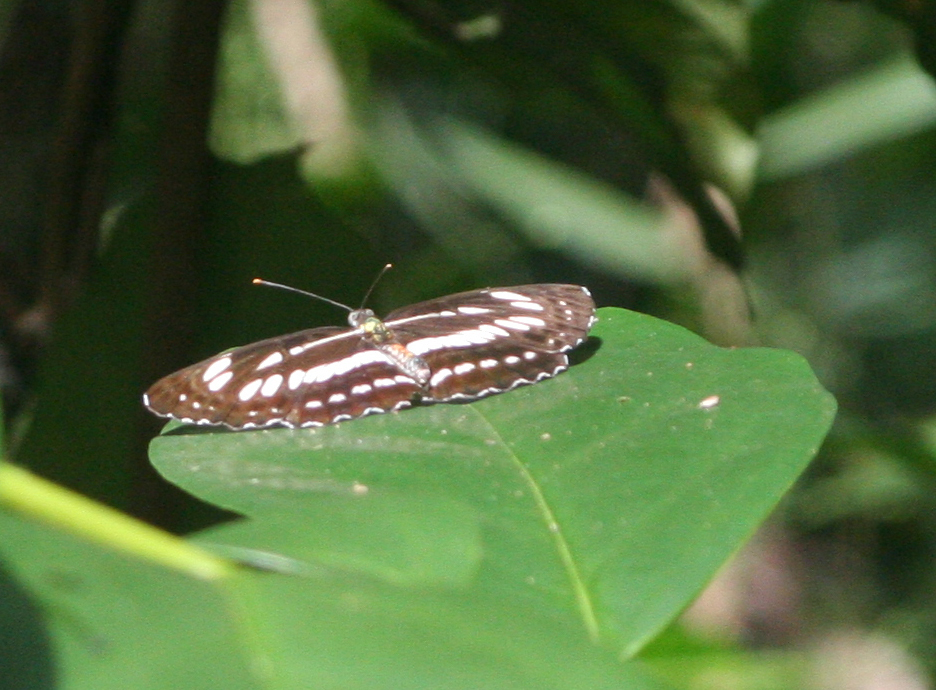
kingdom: Animalia
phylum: Arthropoda
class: Insecta
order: Lepidoptera
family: Nymphalidae
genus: Neptis
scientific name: Neptis hylas
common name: Common sailer
